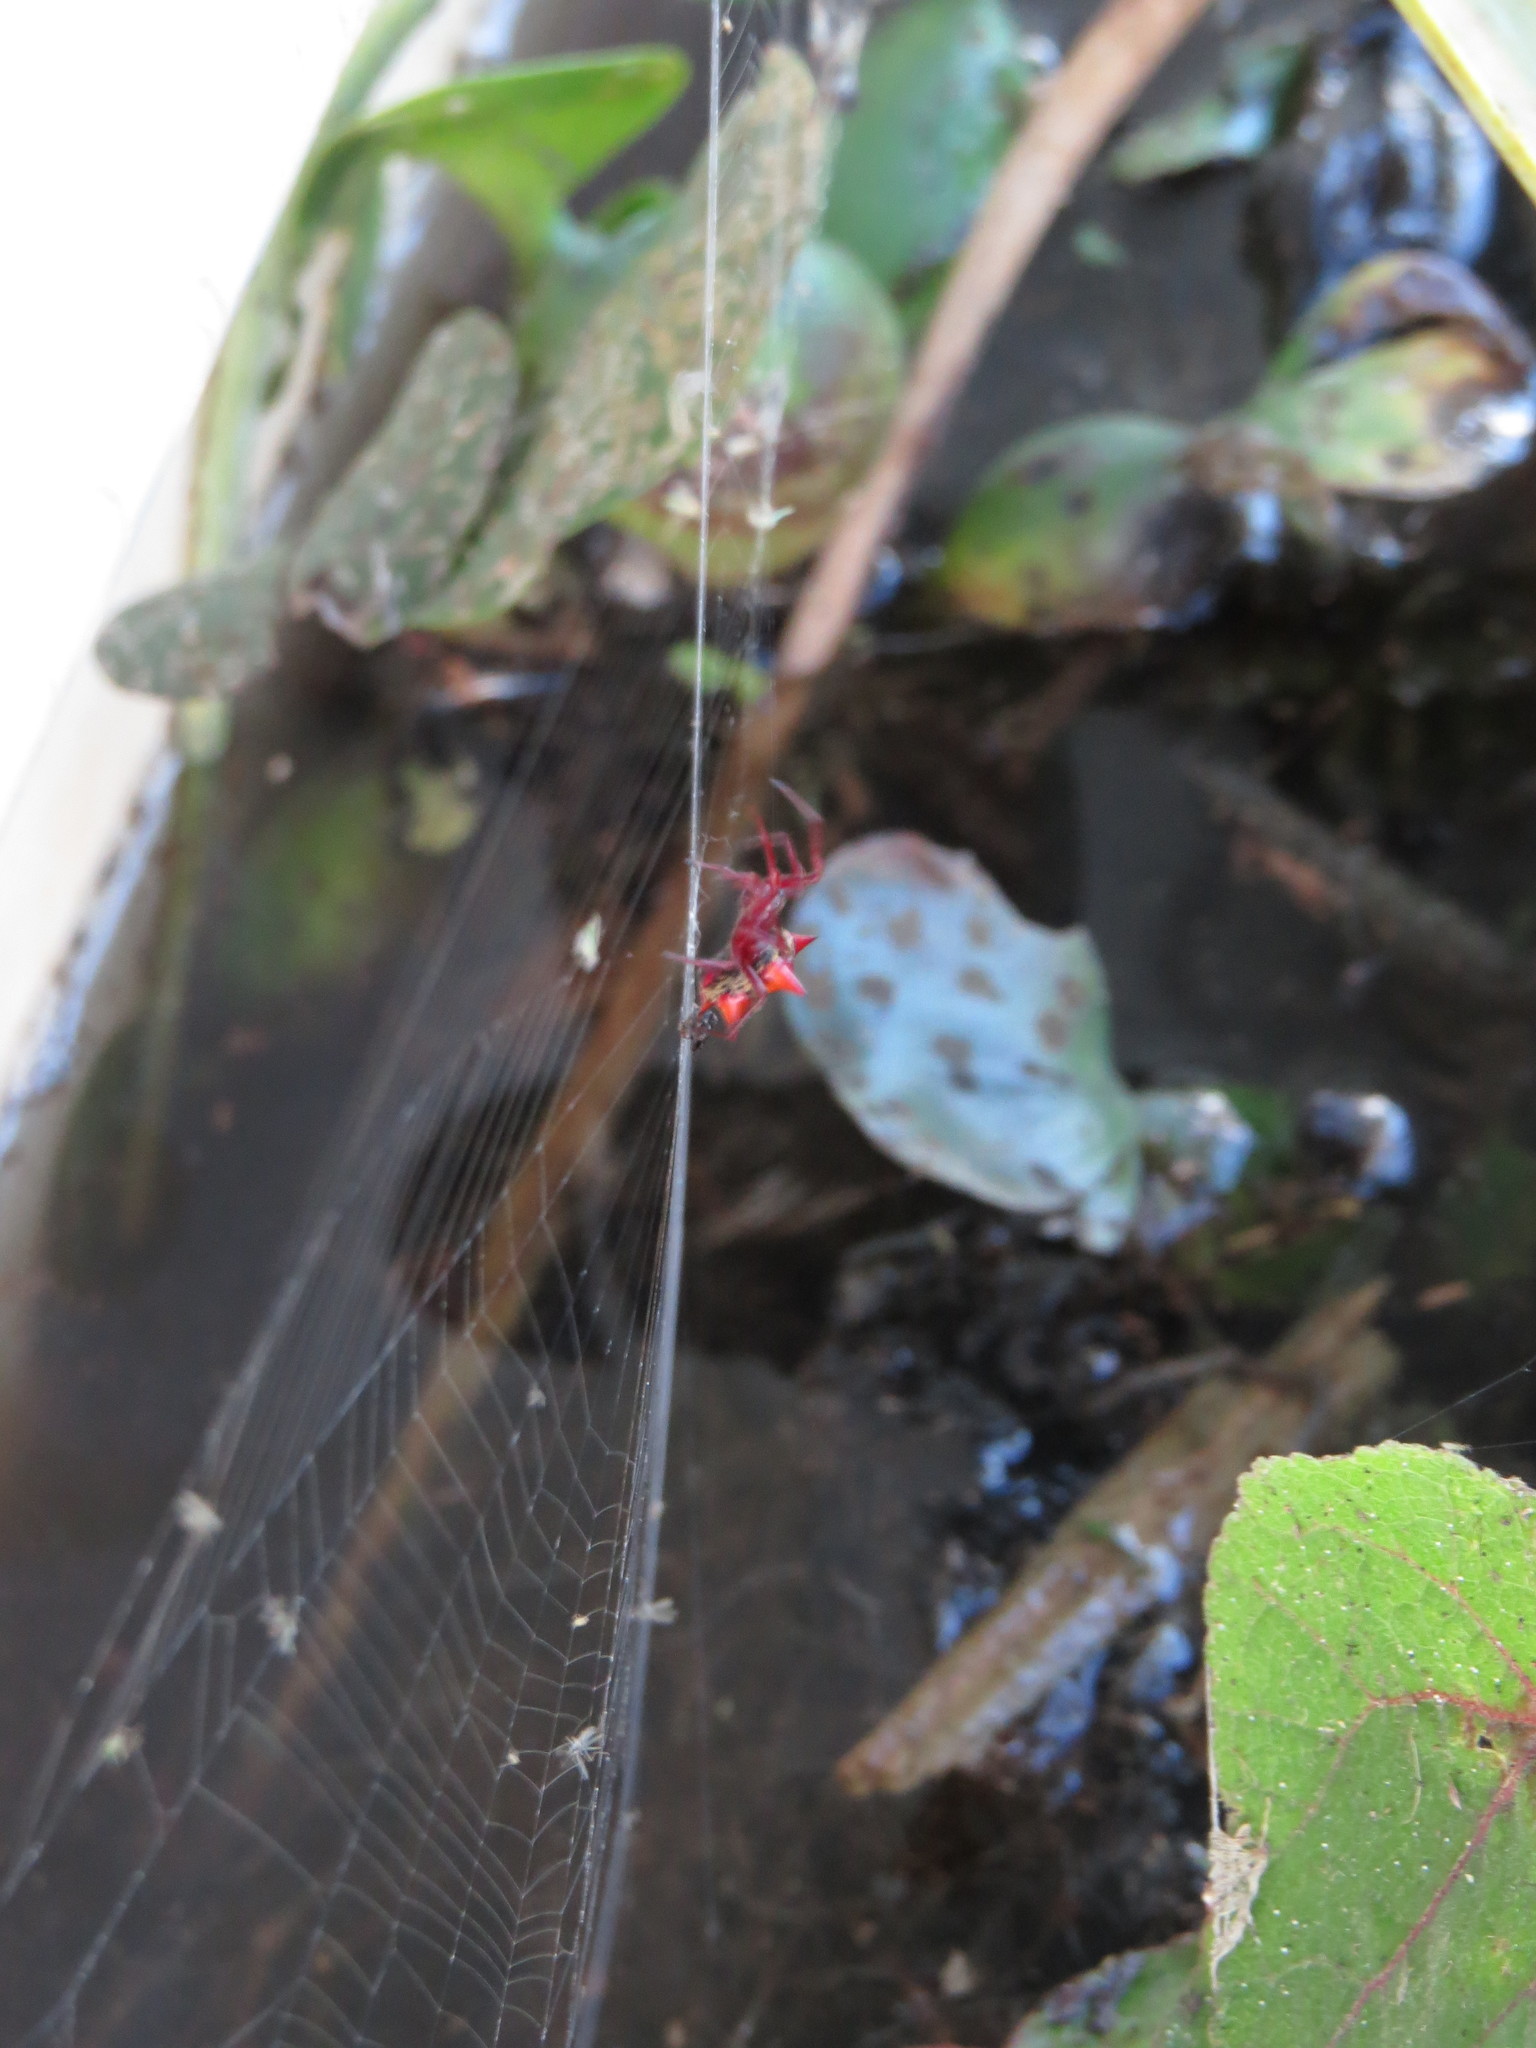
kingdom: Animalia
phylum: Arthropoda
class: Arachnida
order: Araneae
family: Araneidae
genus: Actinosoma
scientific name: Actinosoma pentacanthum
